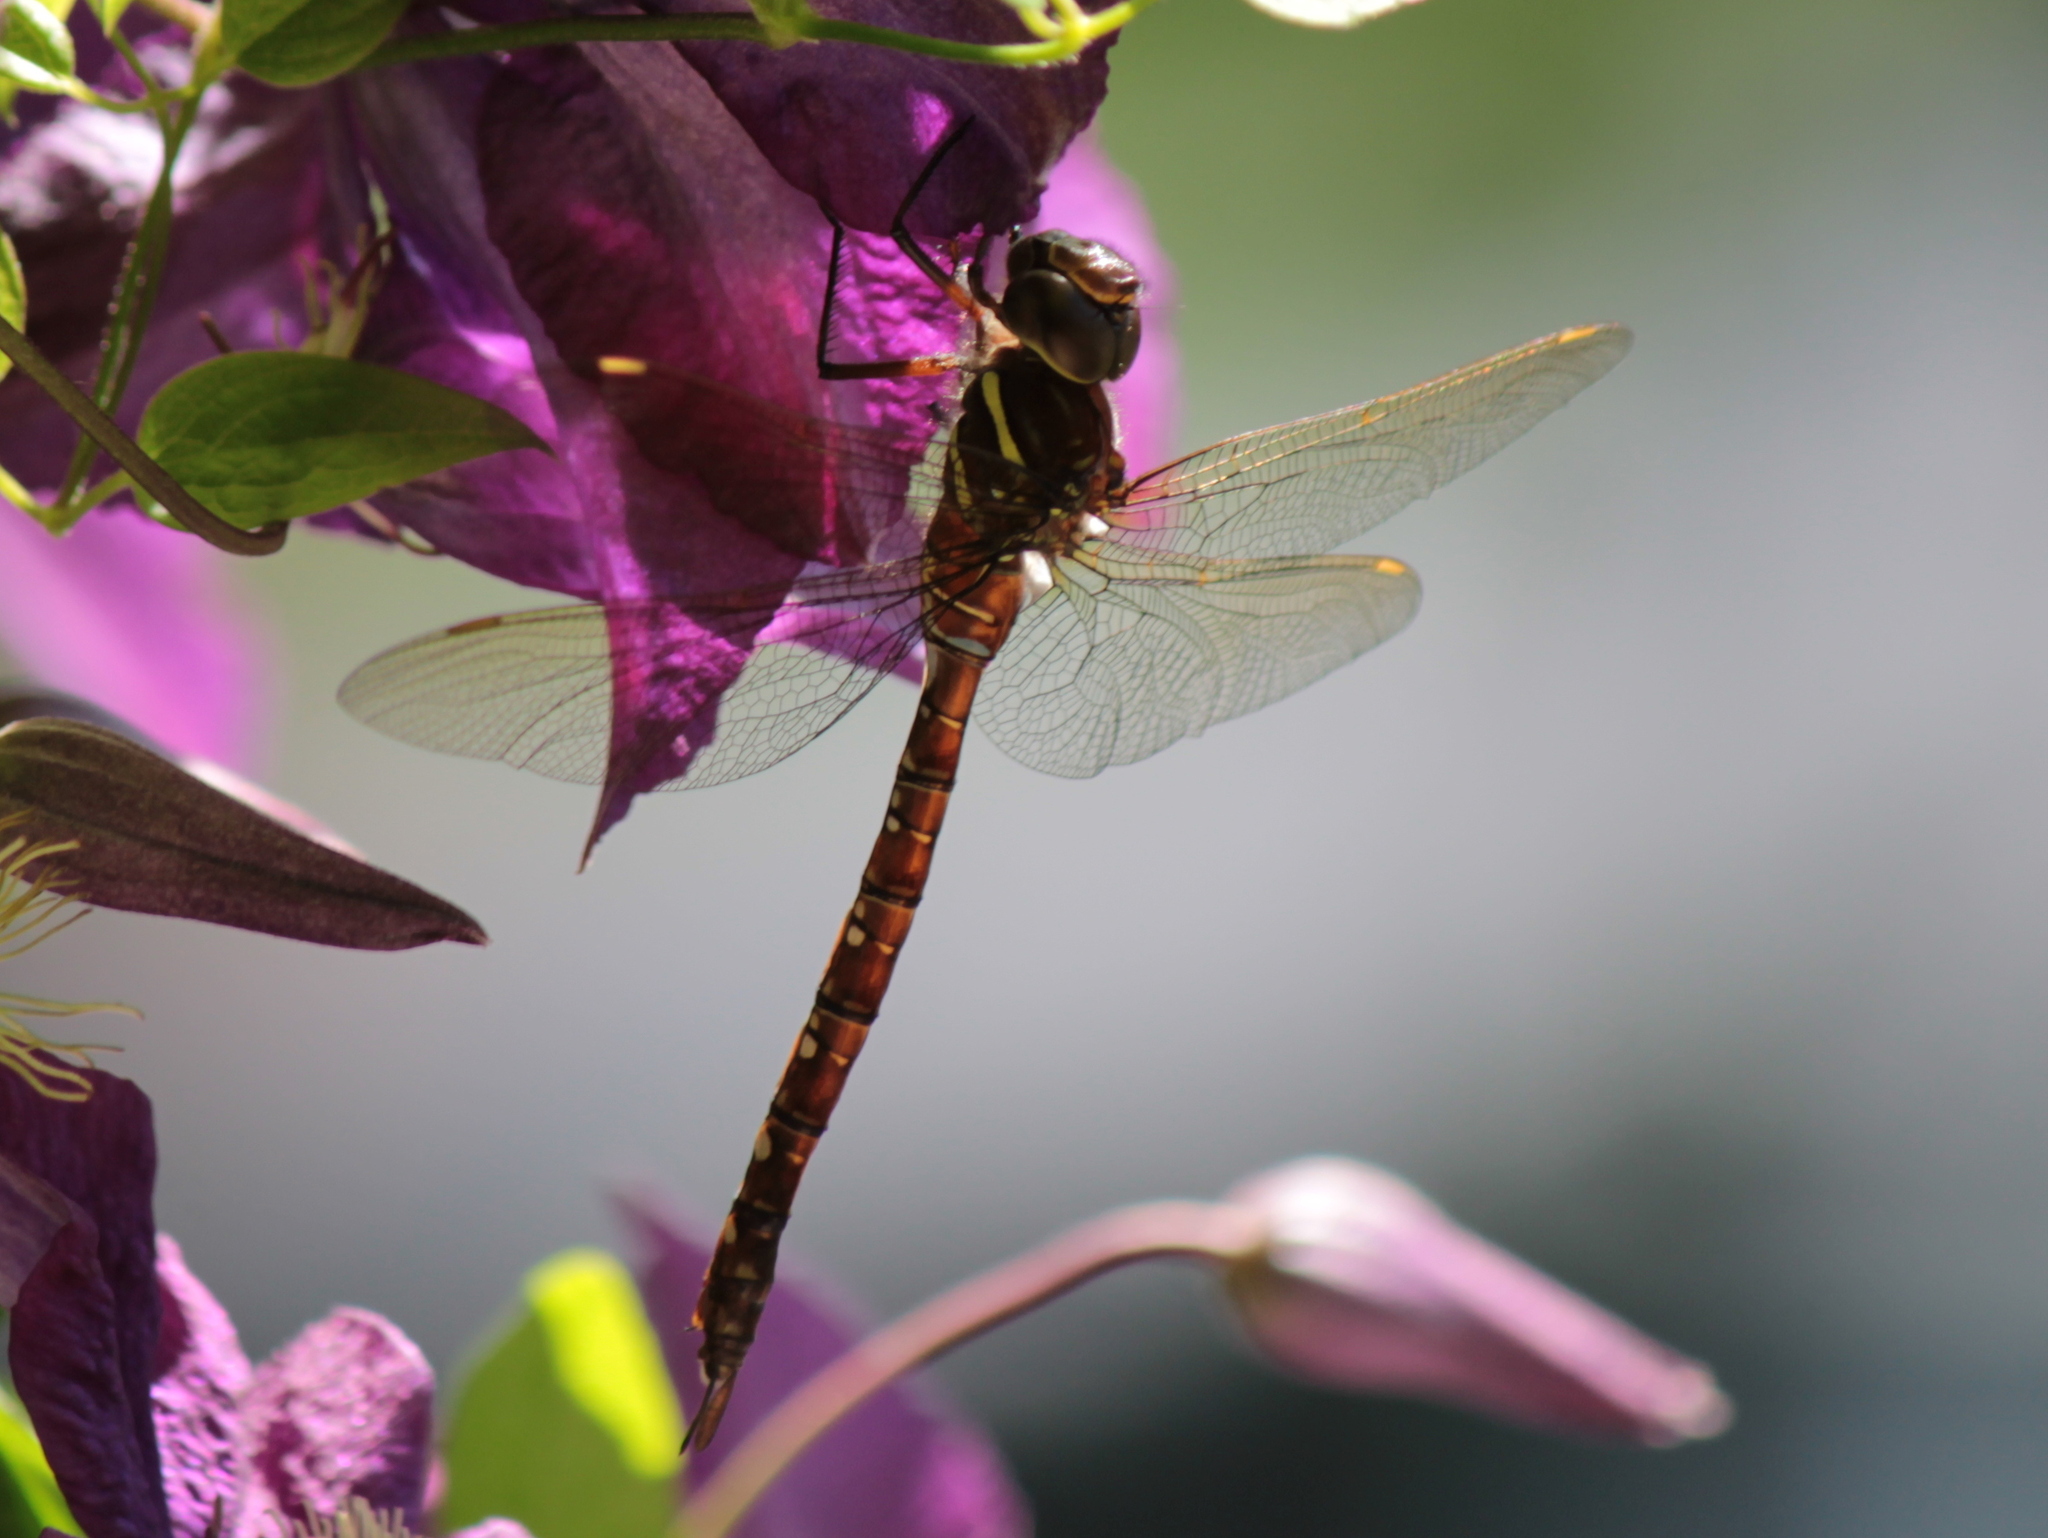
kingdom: Animalia
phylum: Arthropoda
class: Insecta
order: Odonata
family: Aeshnidae
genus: Aeshna
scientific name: Aeshna umbrosa
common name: Shadow darner
